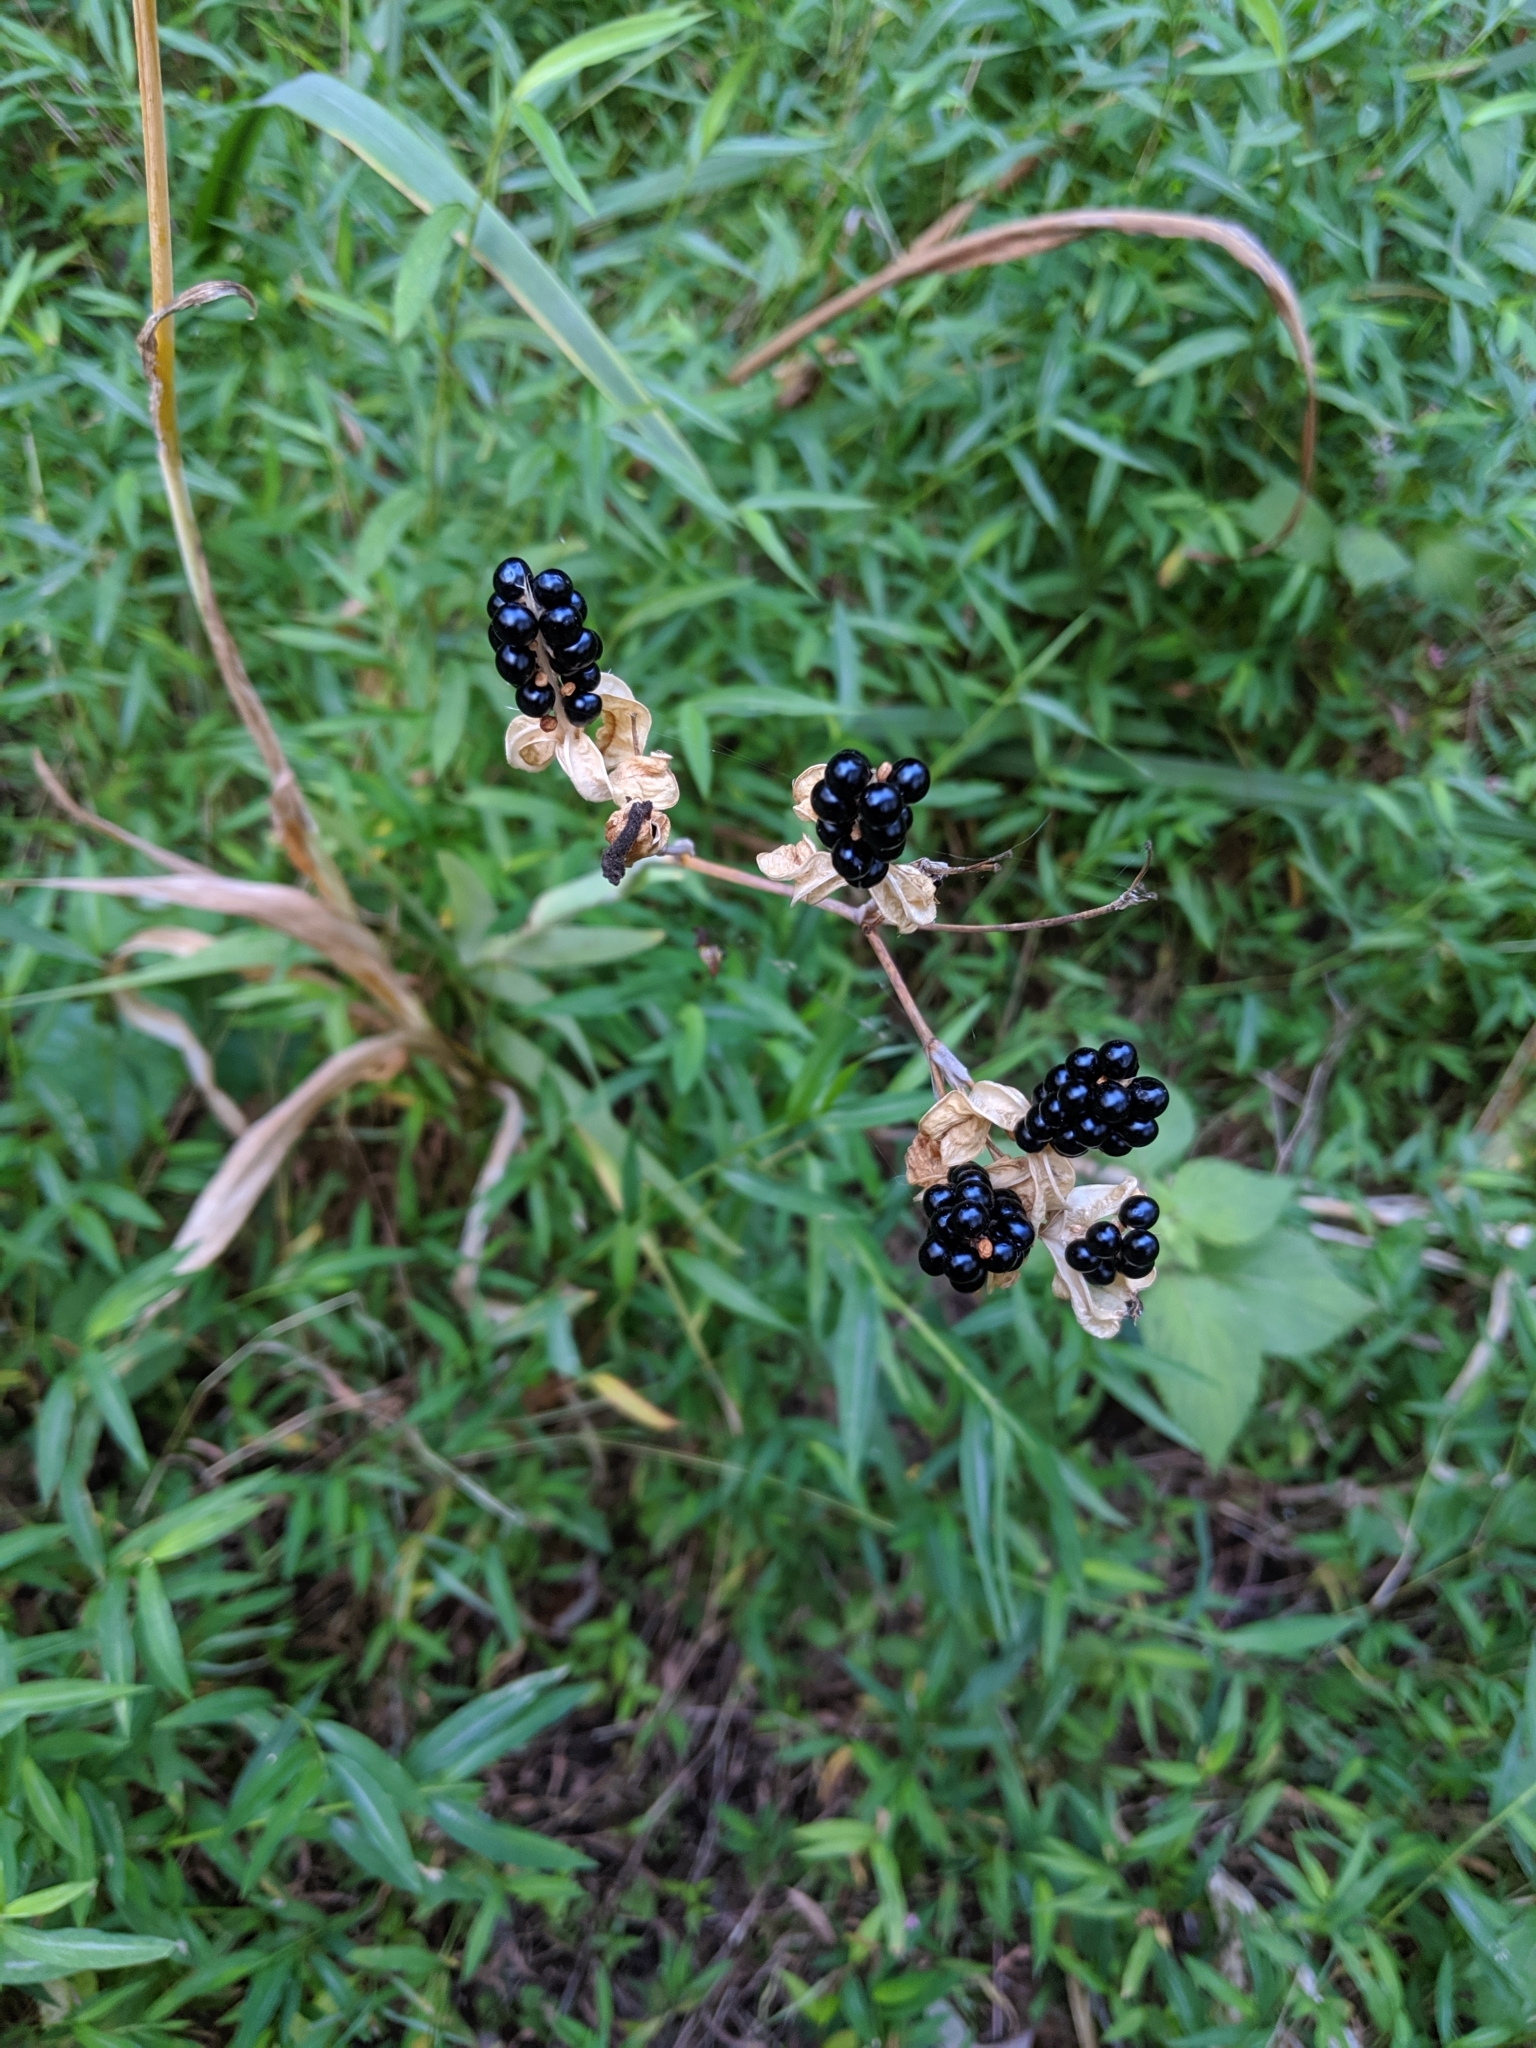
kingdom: Plantae
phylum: Tracheophyta
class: Liliopsida
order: Asparagales
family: Iridaceae
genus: Iris
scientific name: Iris domestica
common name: Belamcanda
